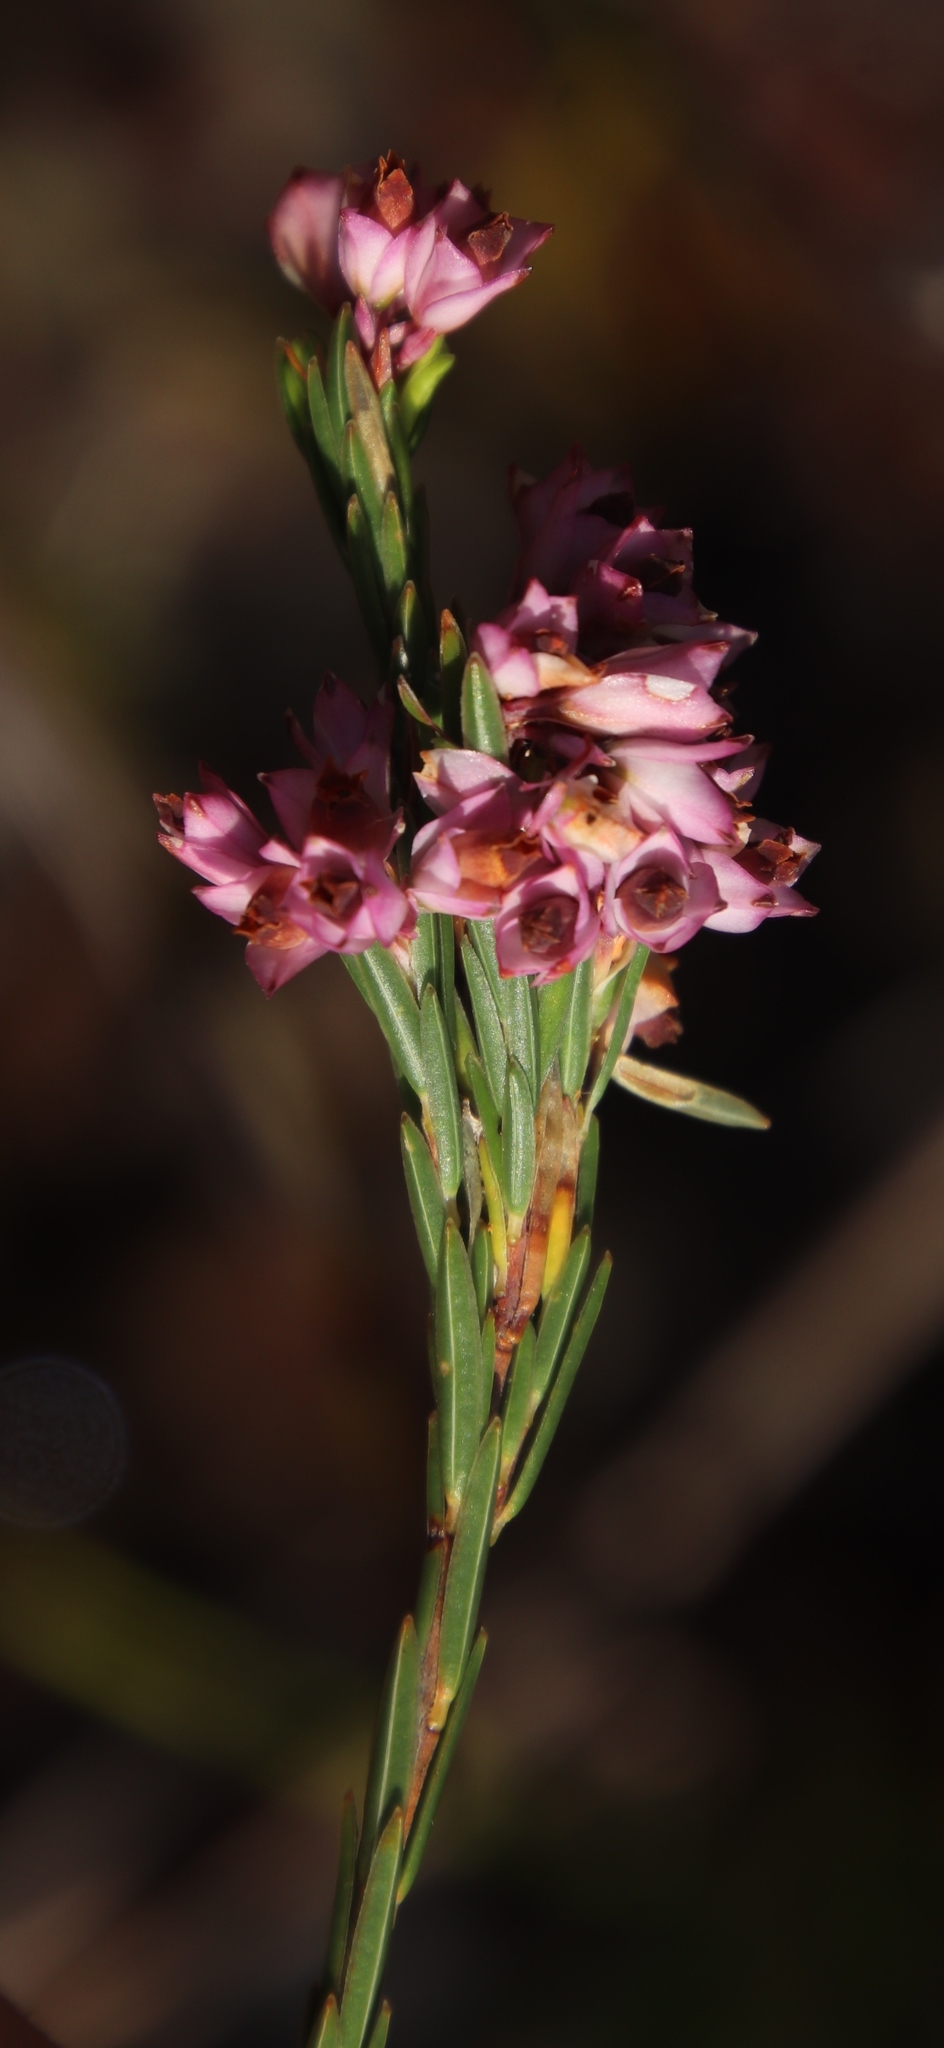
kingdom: Plantae
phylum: Tracheophyta
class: Magnoliopsida
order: Ericales
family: Ericaceae
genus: Erica
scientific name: Erica corifolia
